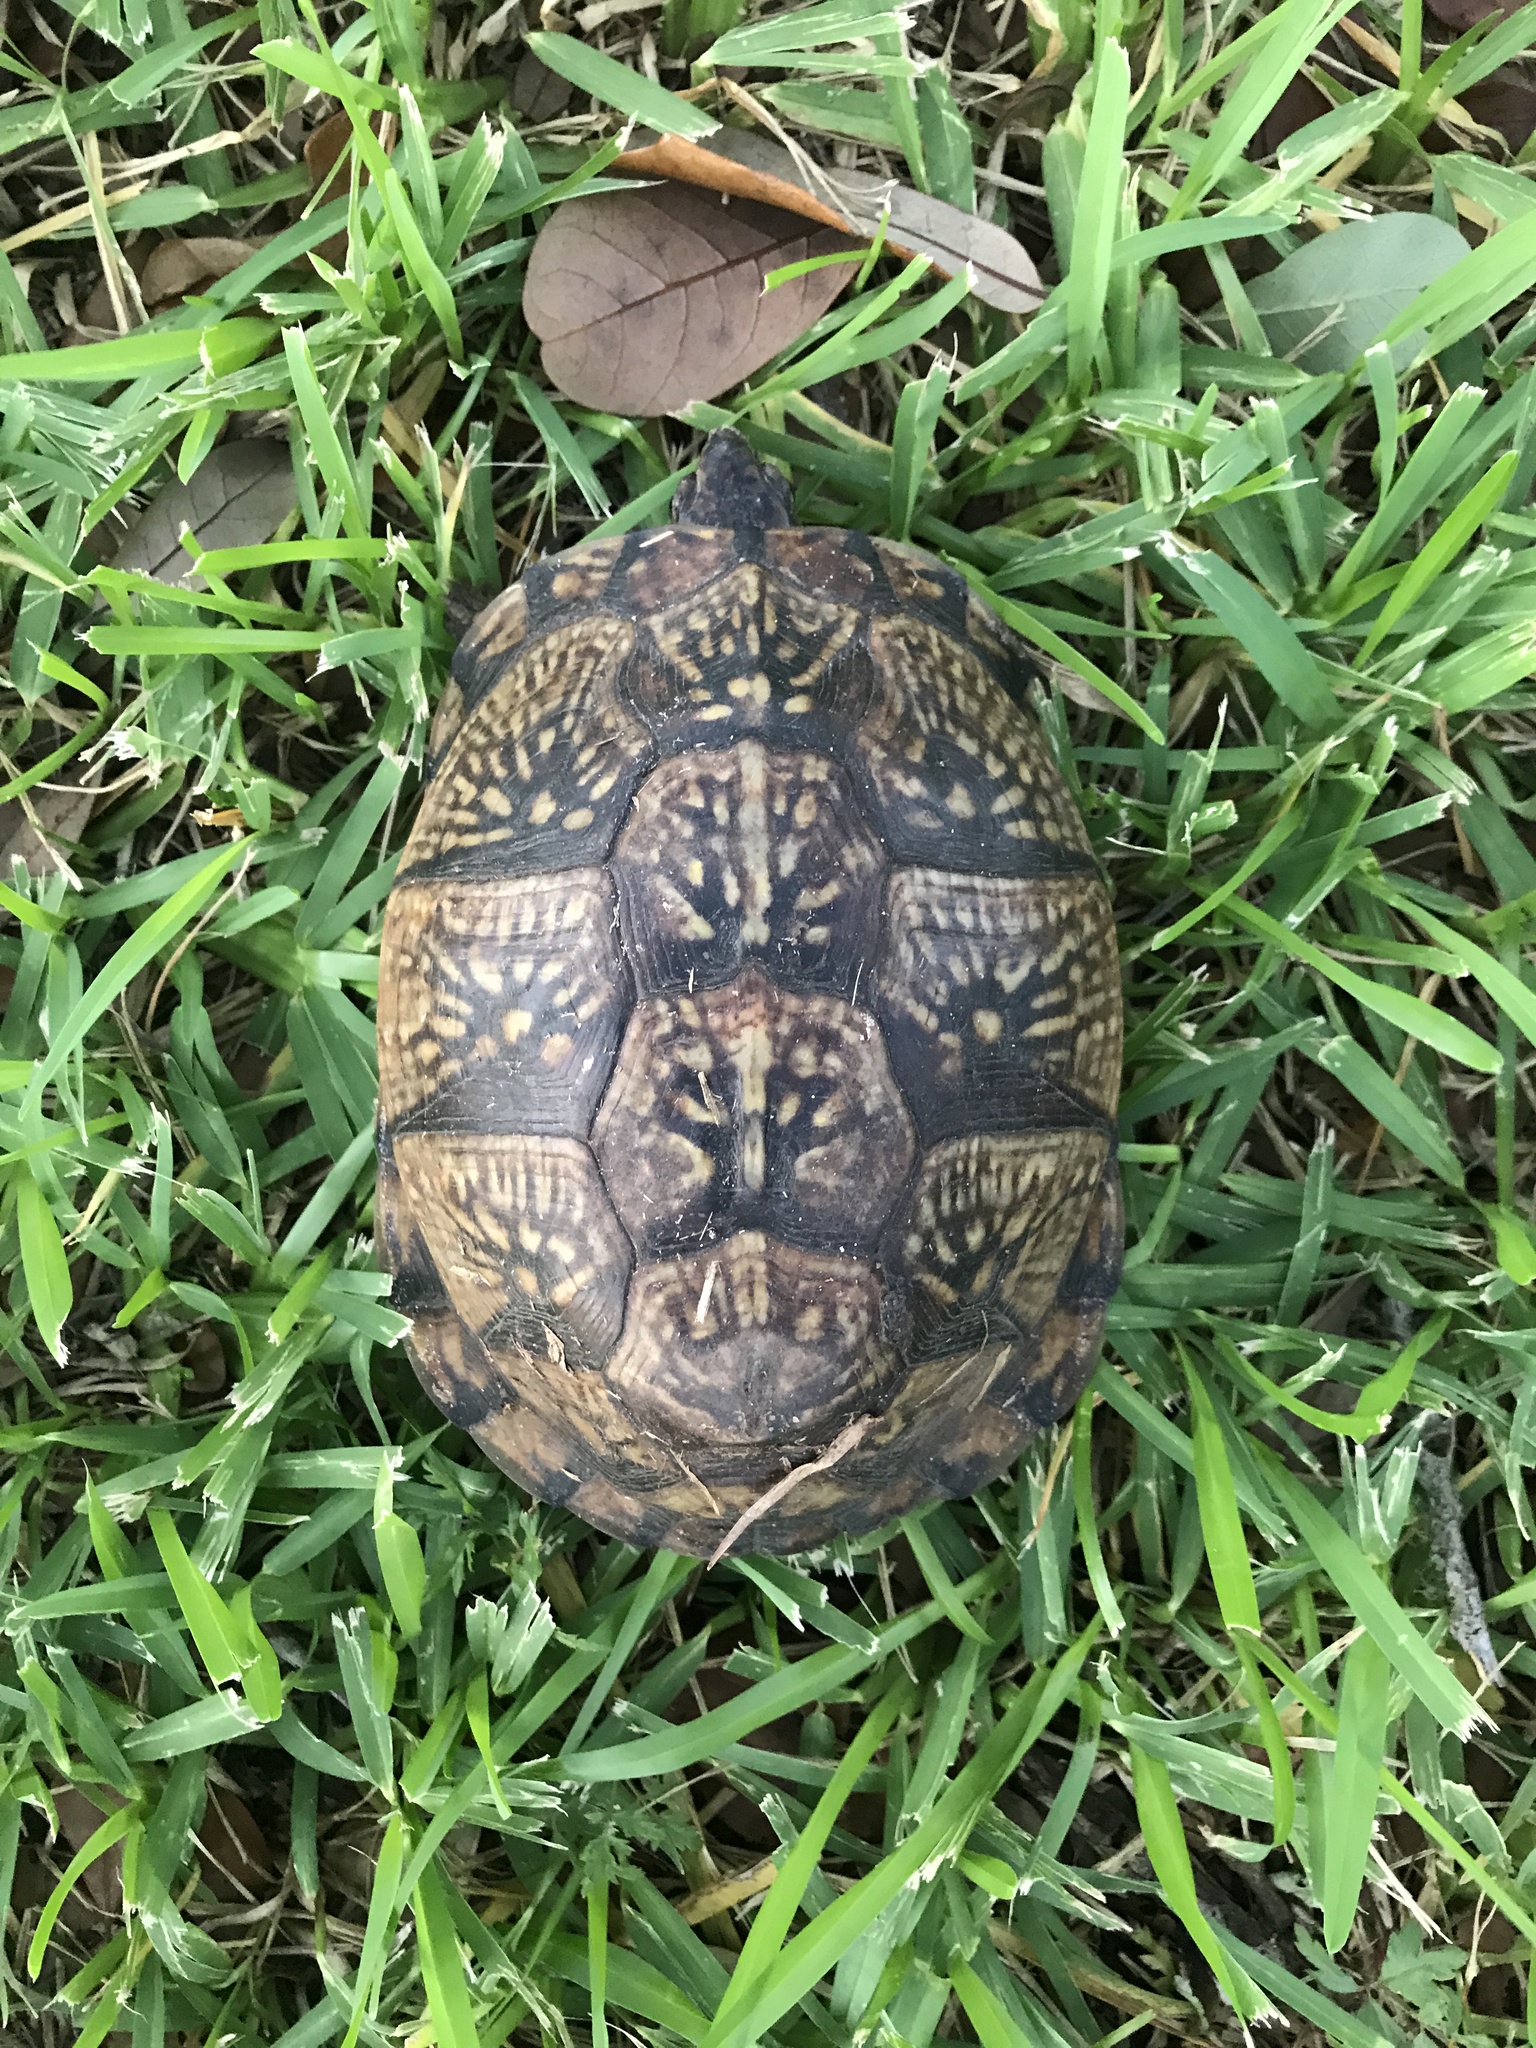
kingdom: Animalia
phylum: Chordata
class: Testudines
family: Emydidae
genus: Terrapene
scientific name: Terrapene carolina
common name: Common box turtle
